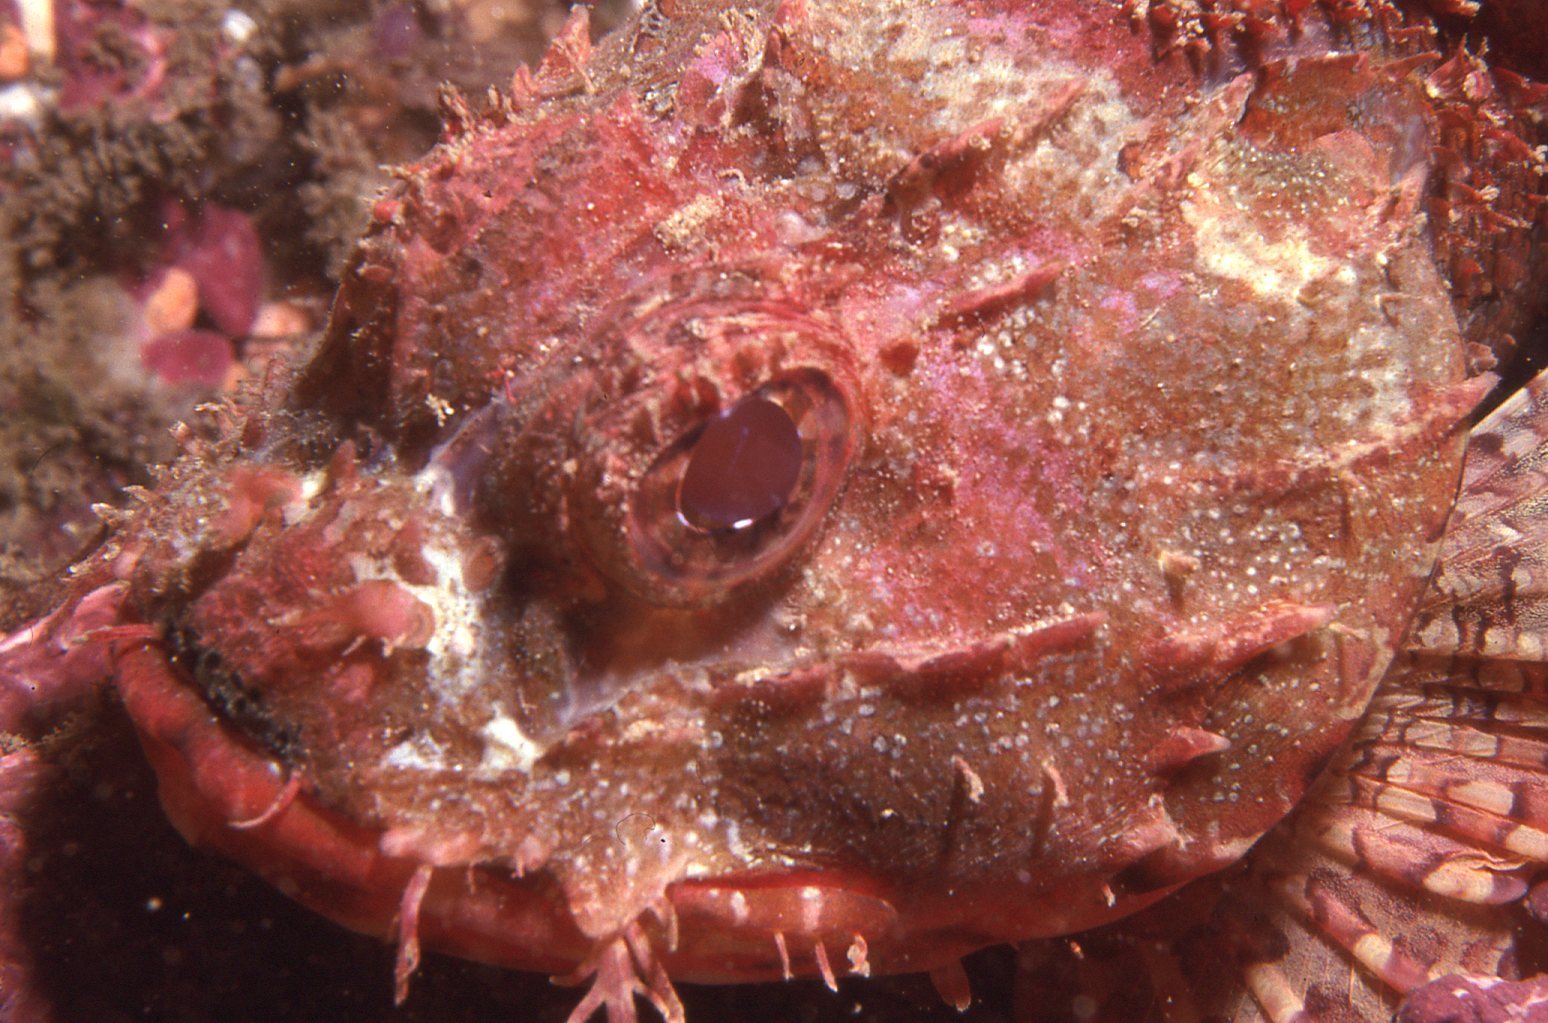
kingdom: Animalia
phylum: Chordata
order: Scorpaeniformes
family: Scorpaenidae
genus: Scorpaena
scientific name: Scorpaena jacksoniensis
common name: Eastern red scorpionfish
